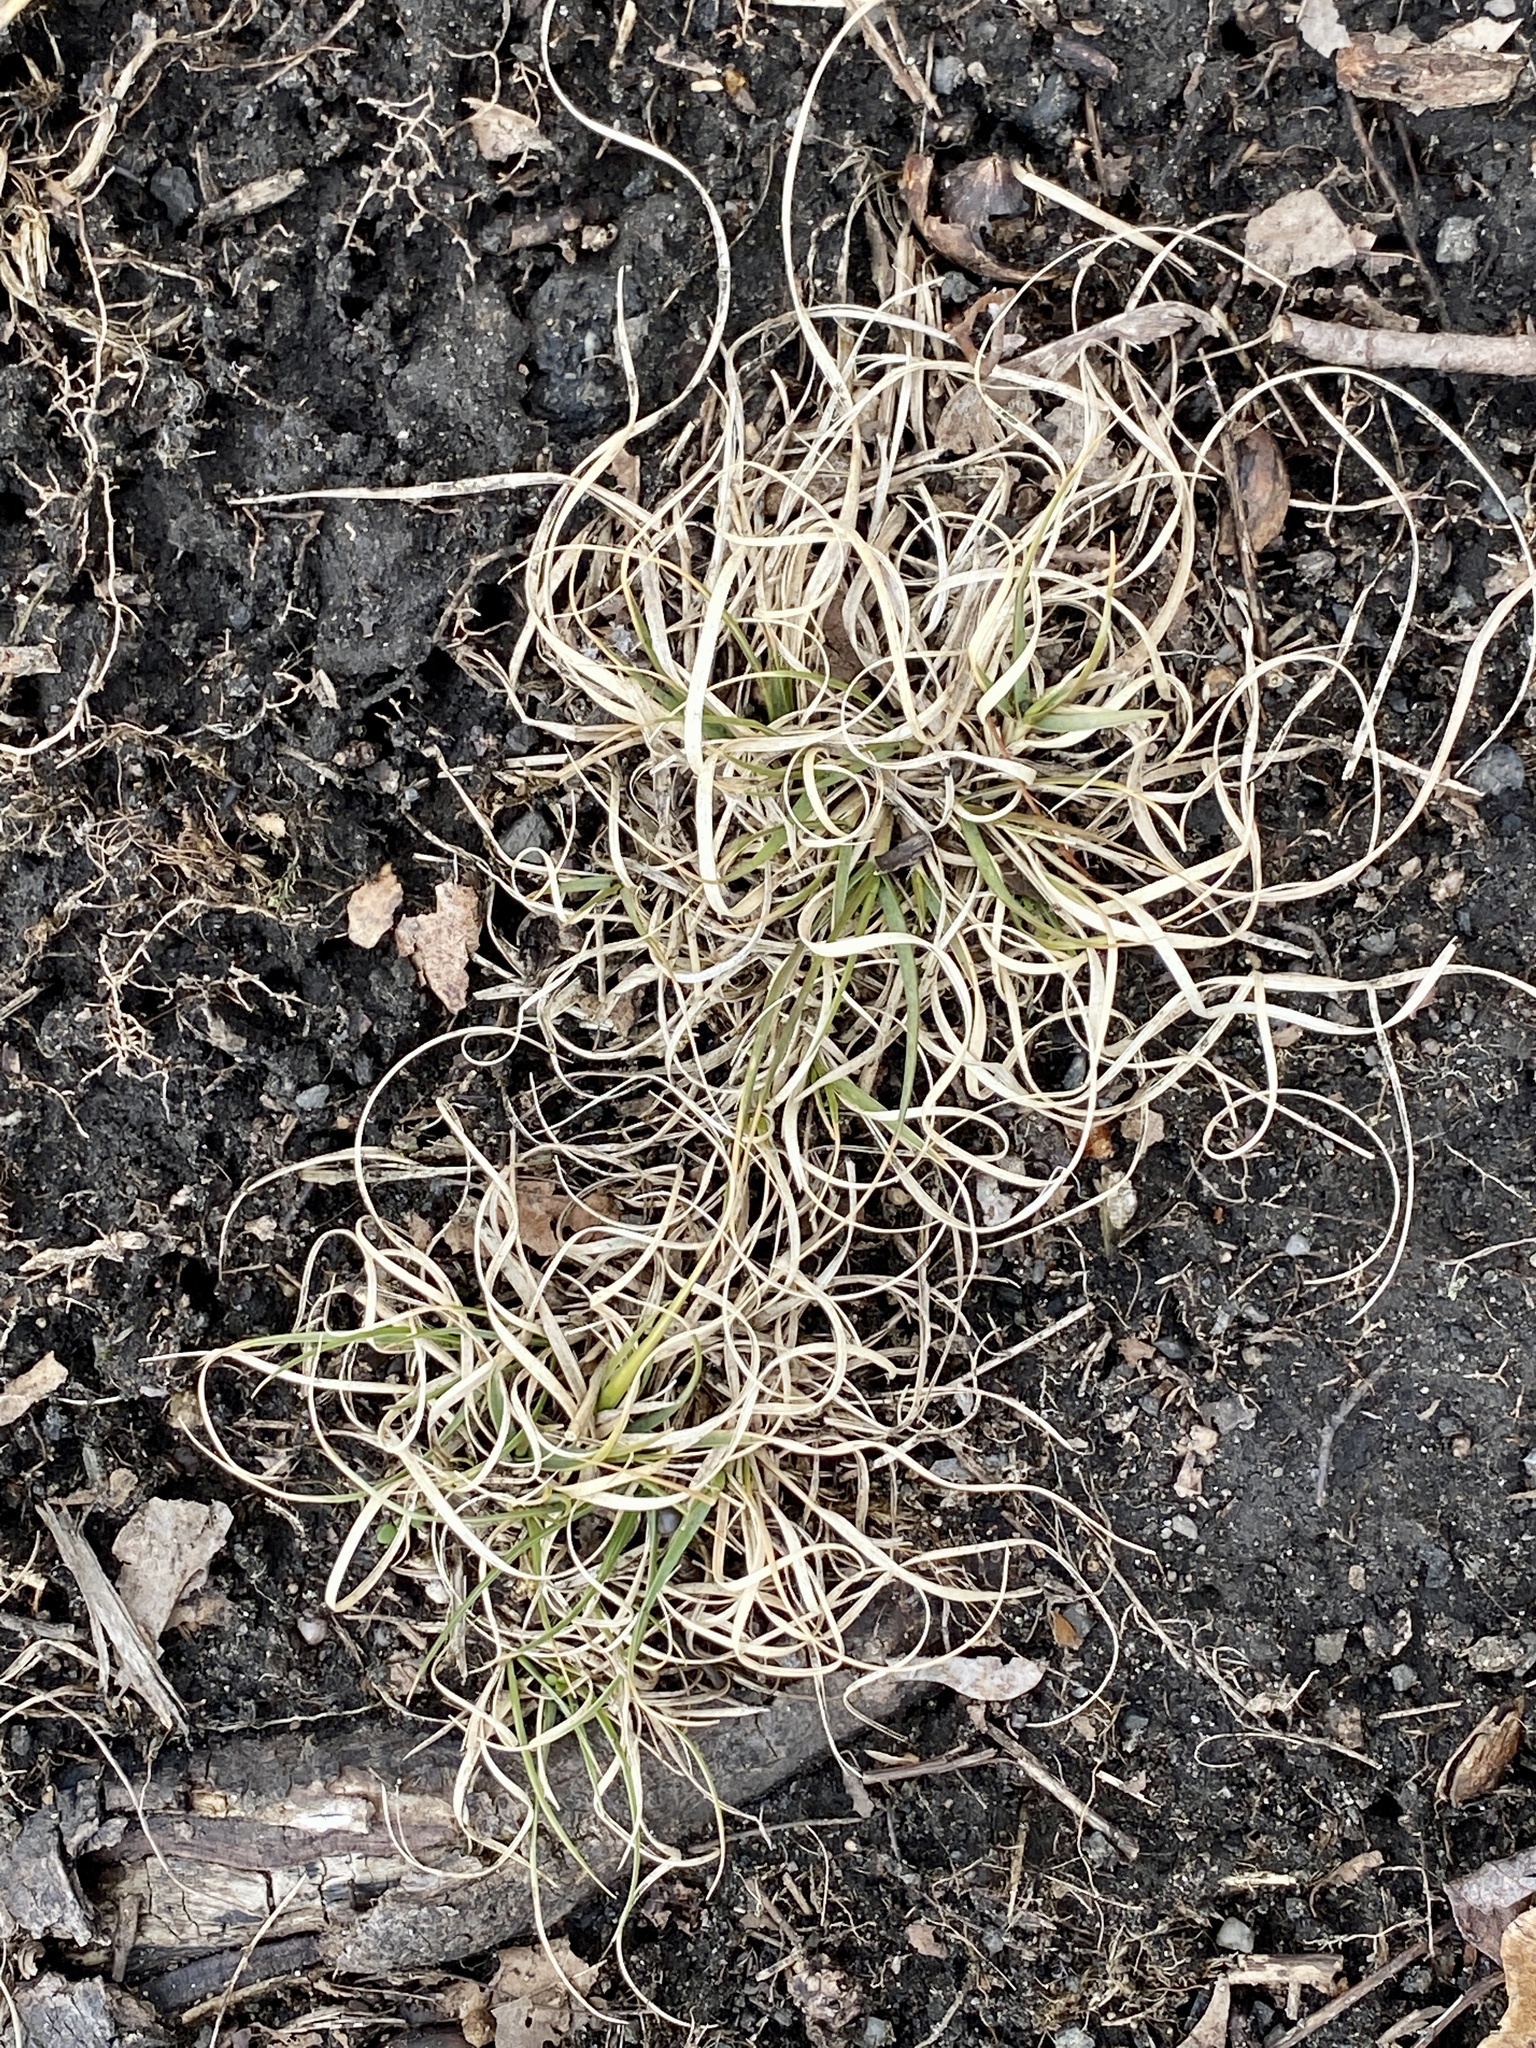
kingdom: Plantae
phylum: Tracheophyta
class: Liliopsida
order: Poales
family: Poaceae
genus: Danthonia
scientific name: Danthonia spicata
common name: Common wild oatgrass
